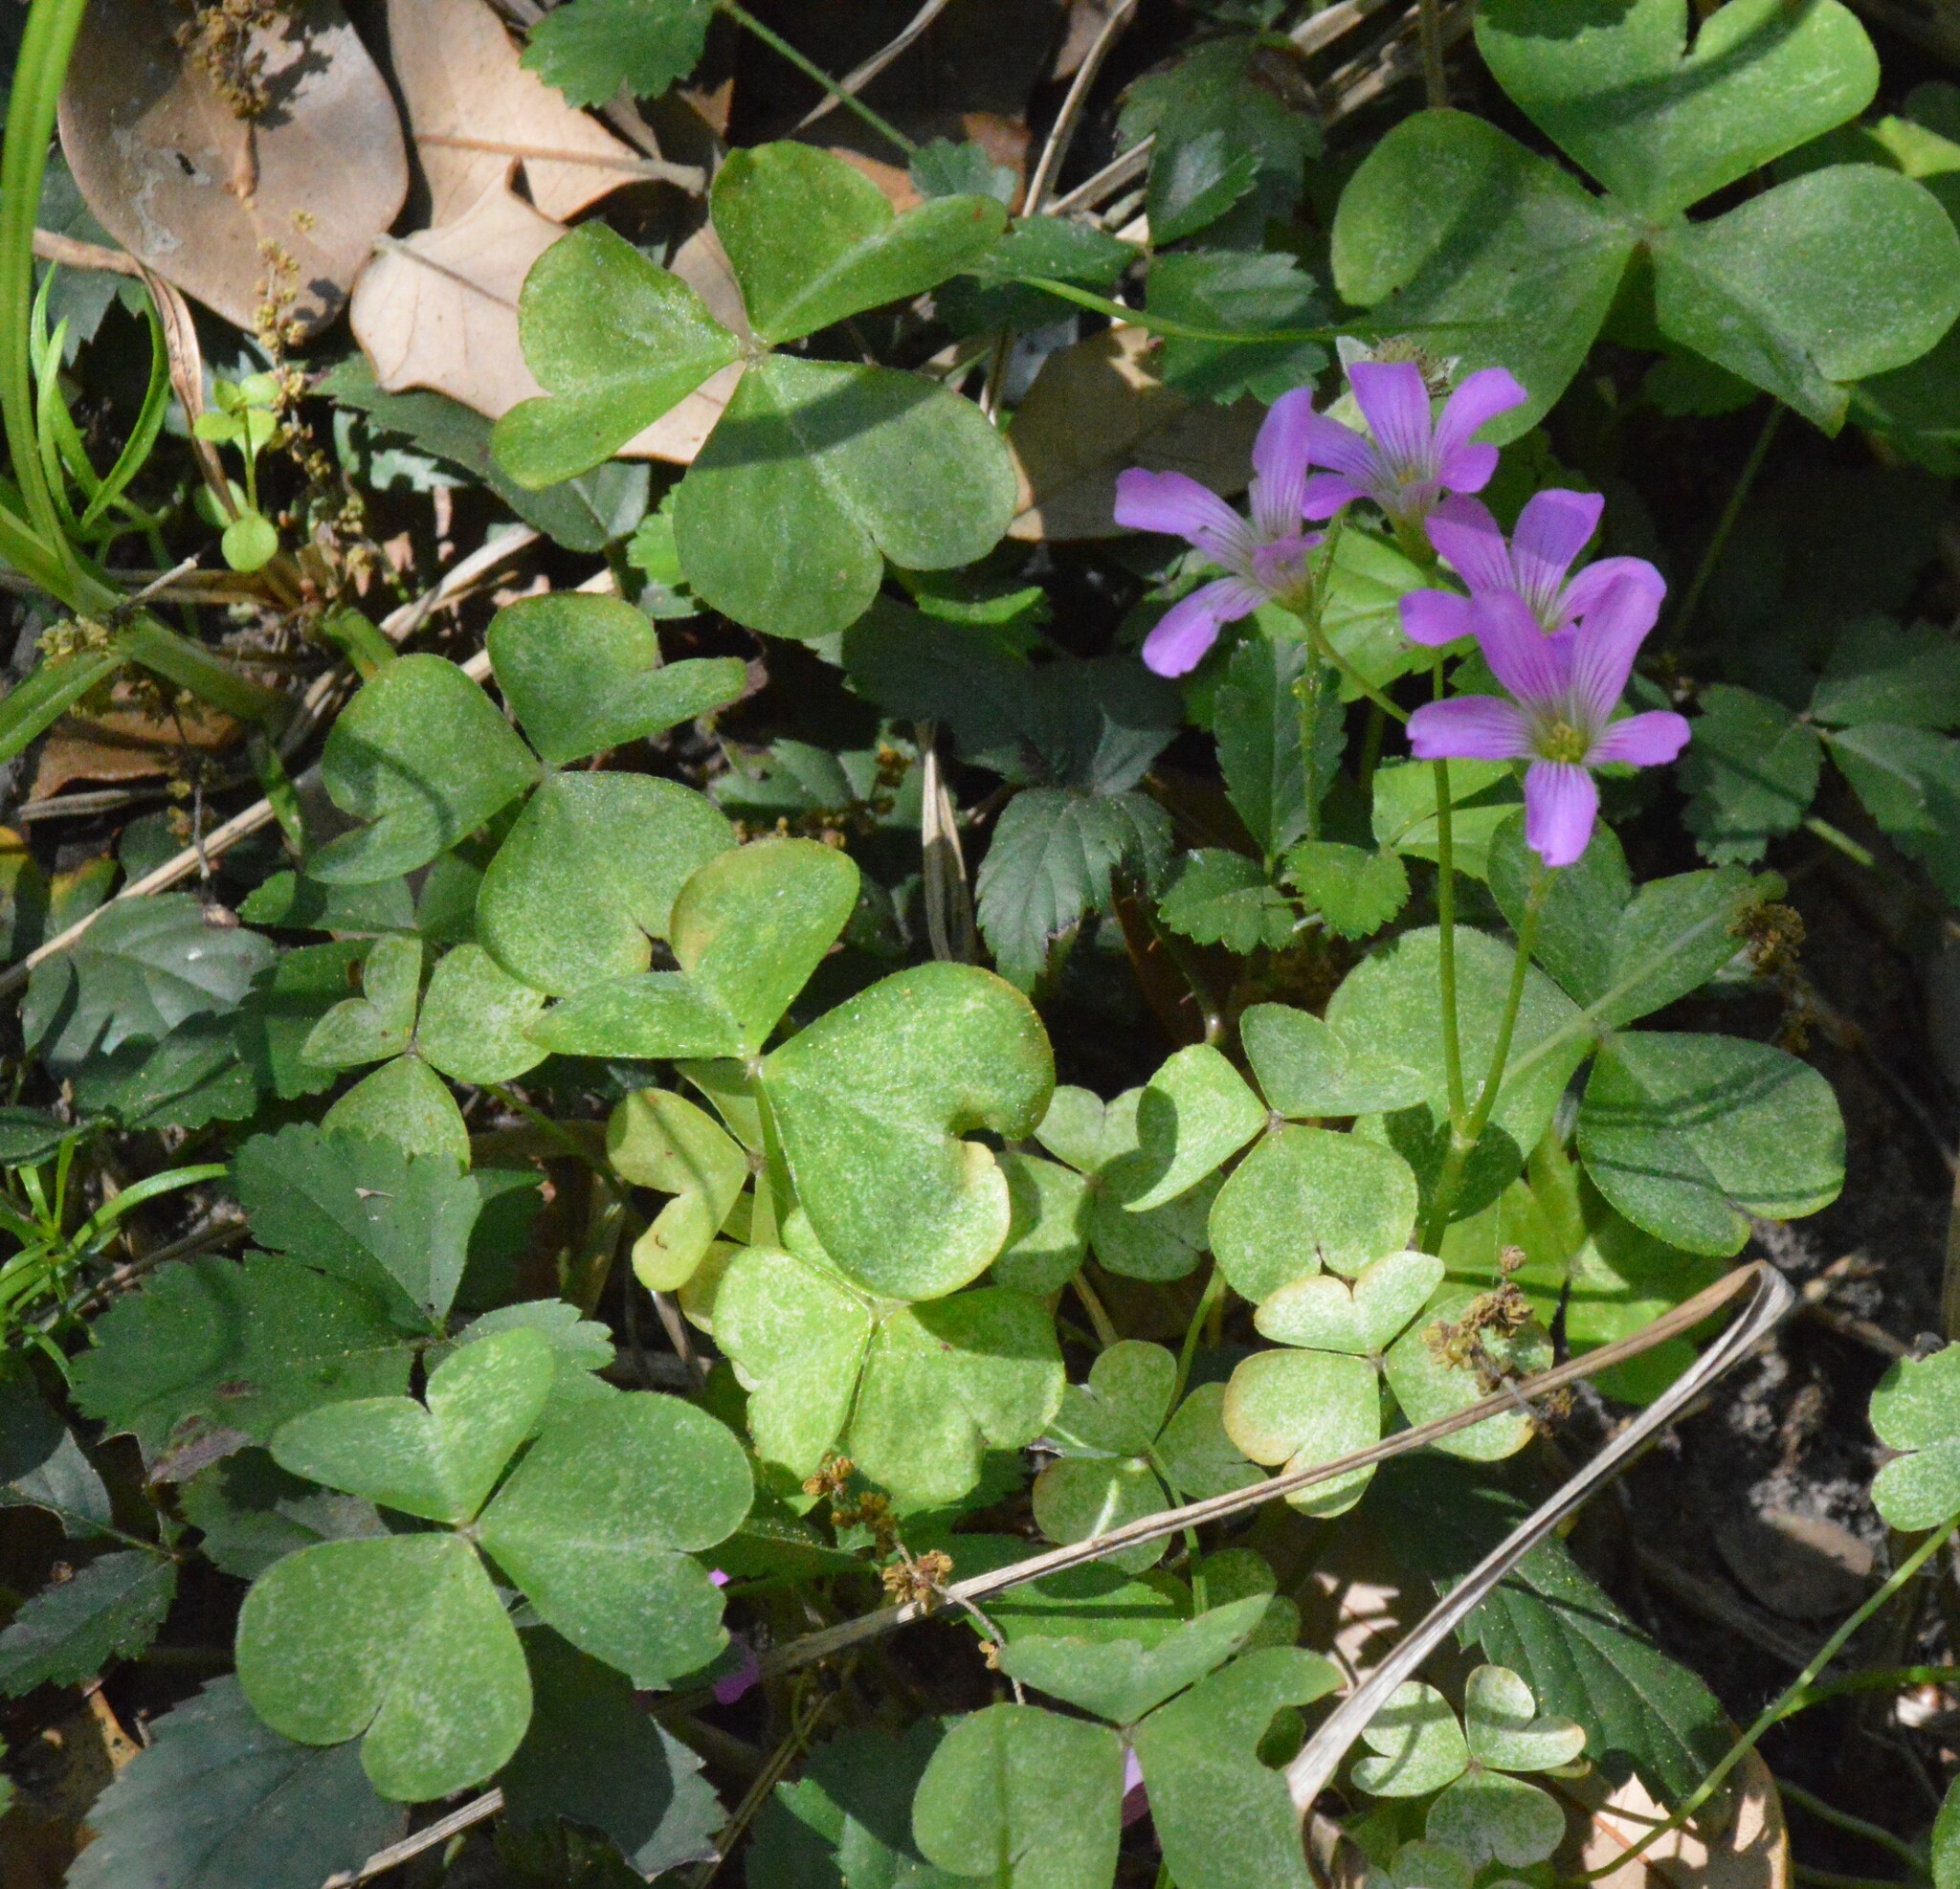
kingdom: Plantae
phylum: Tracheophyta
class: Magnoliopsida
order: Oxalidales
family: Oxalidaceae
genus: Oxalis
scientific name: Oxalis debilis
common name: Large-flowered pink-sorrel
